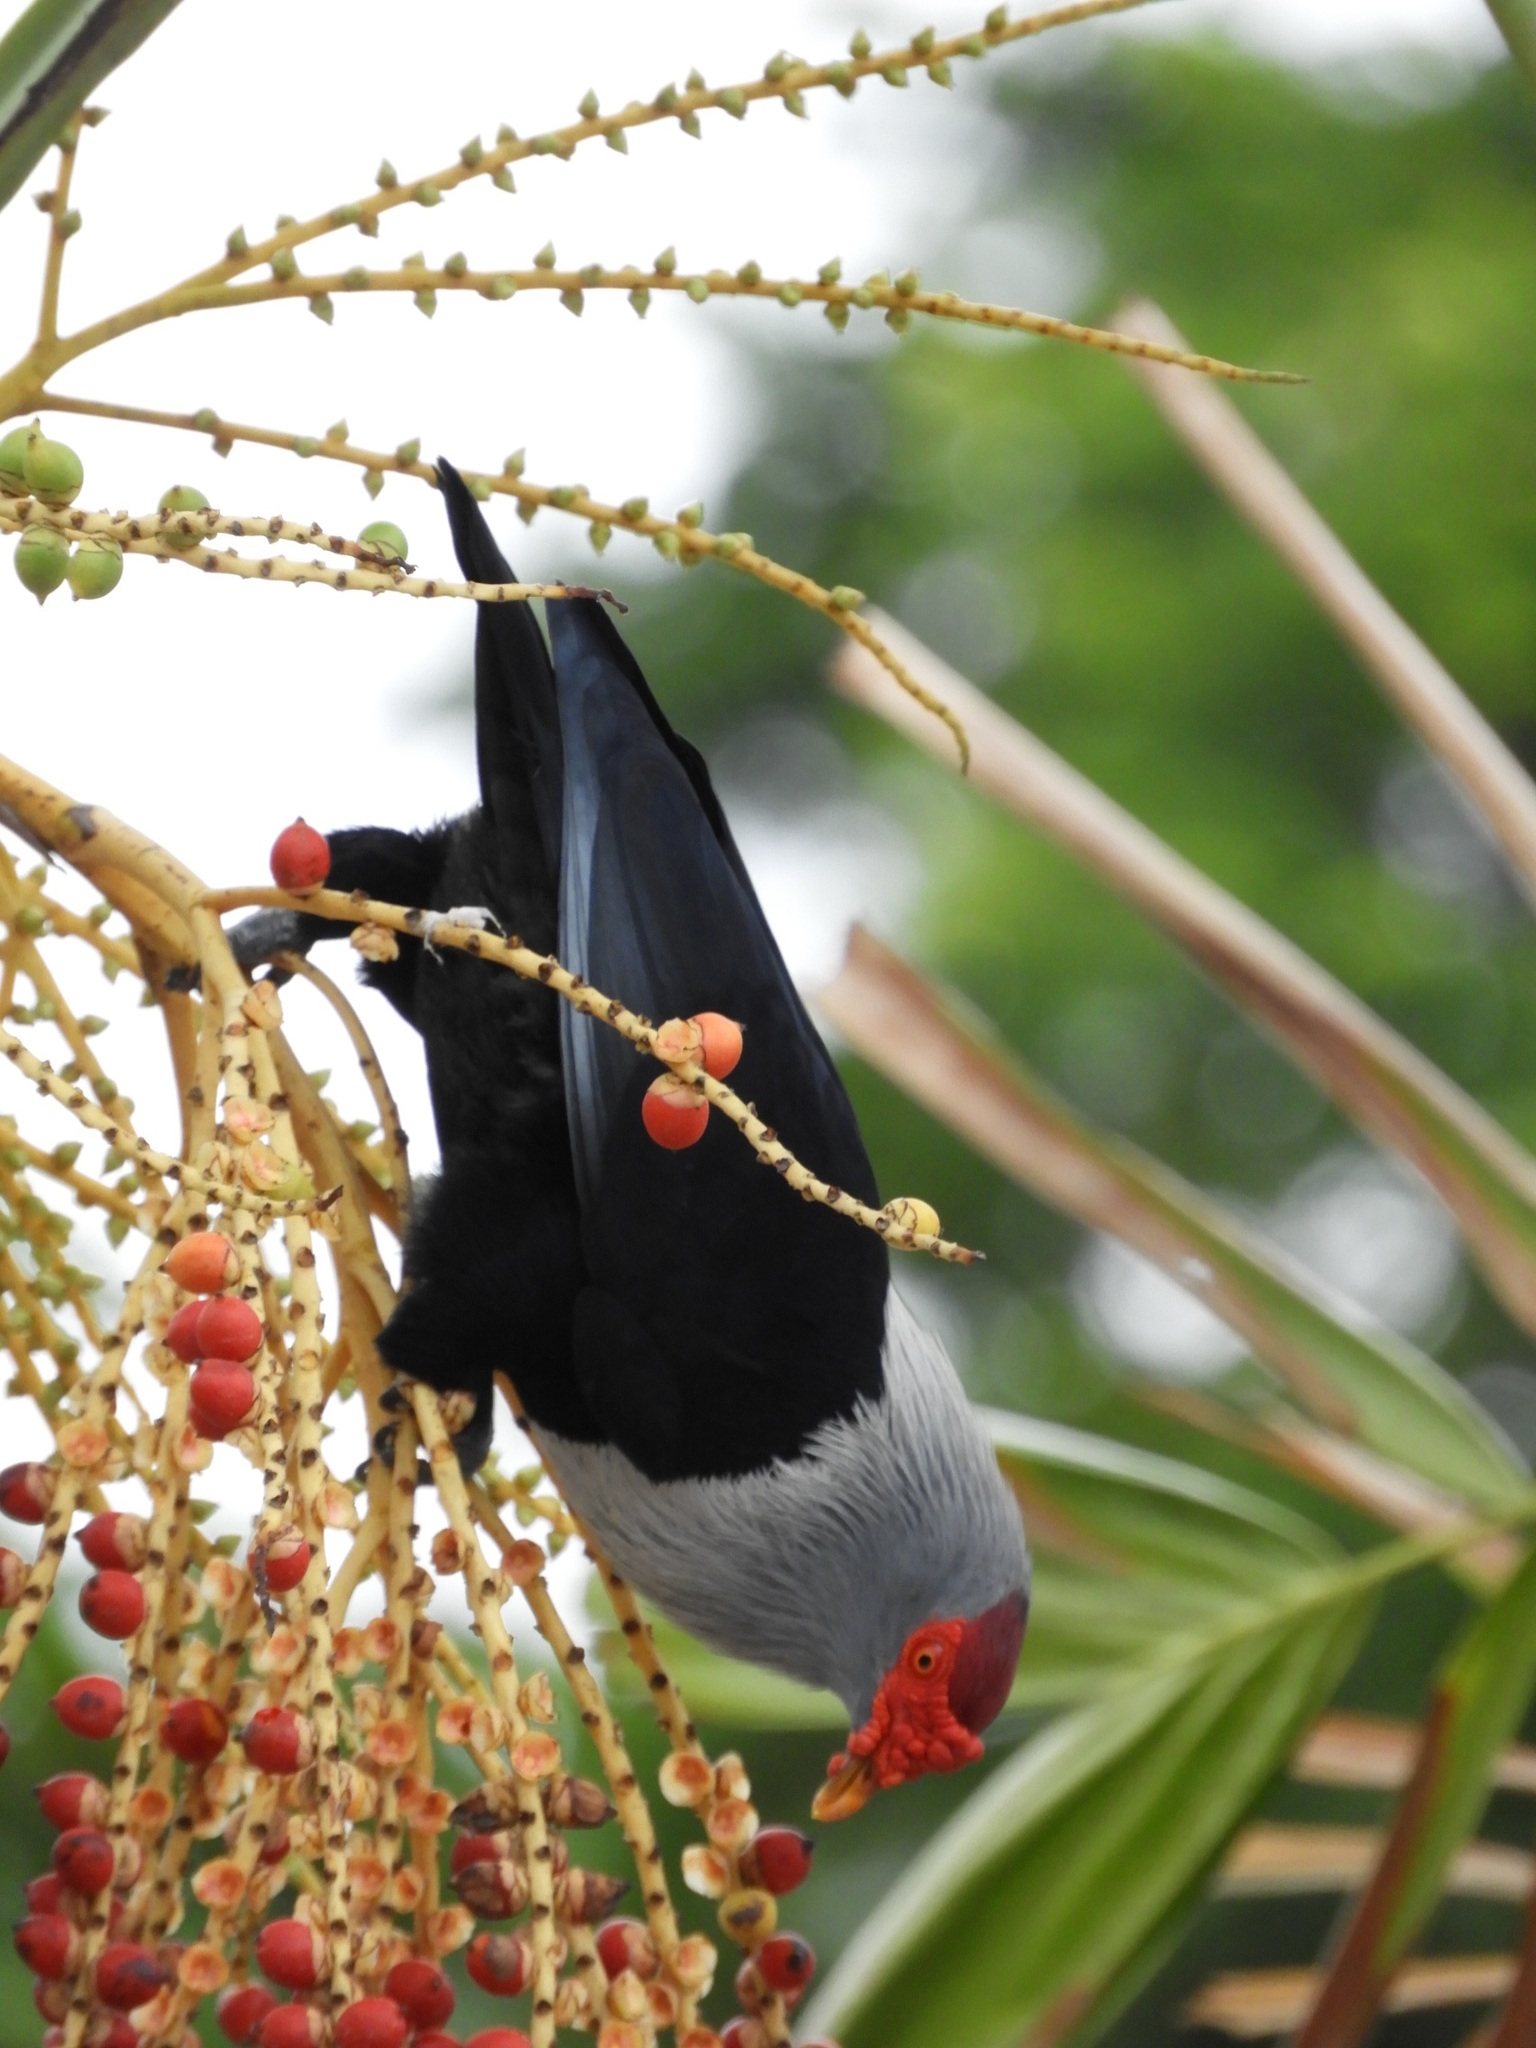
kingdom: Animalia
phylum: Chordata
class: Aves
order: Columbiformes
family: Columbidae
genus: Alectroenas
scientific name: Alectroenas pulcherrimus
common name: Seychelles blue pigeon
